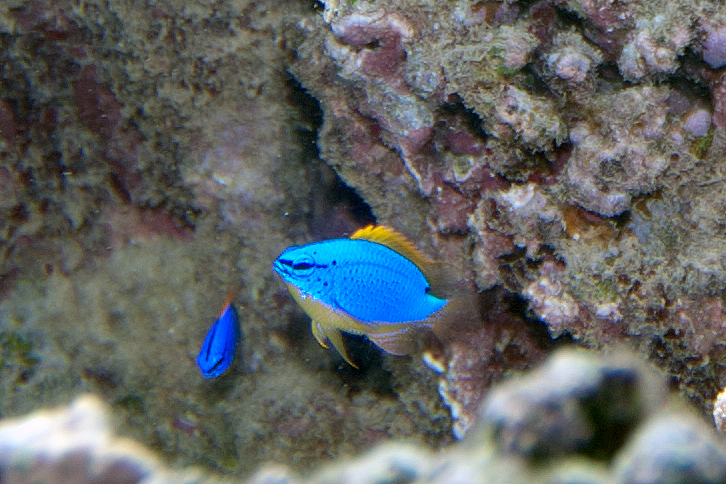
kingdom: Animalia
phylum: Chordata
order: Perciformes
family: Pomacentridae
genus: Chrysiptera
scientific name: Chrysiptera taupou
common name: Fiji damsel
